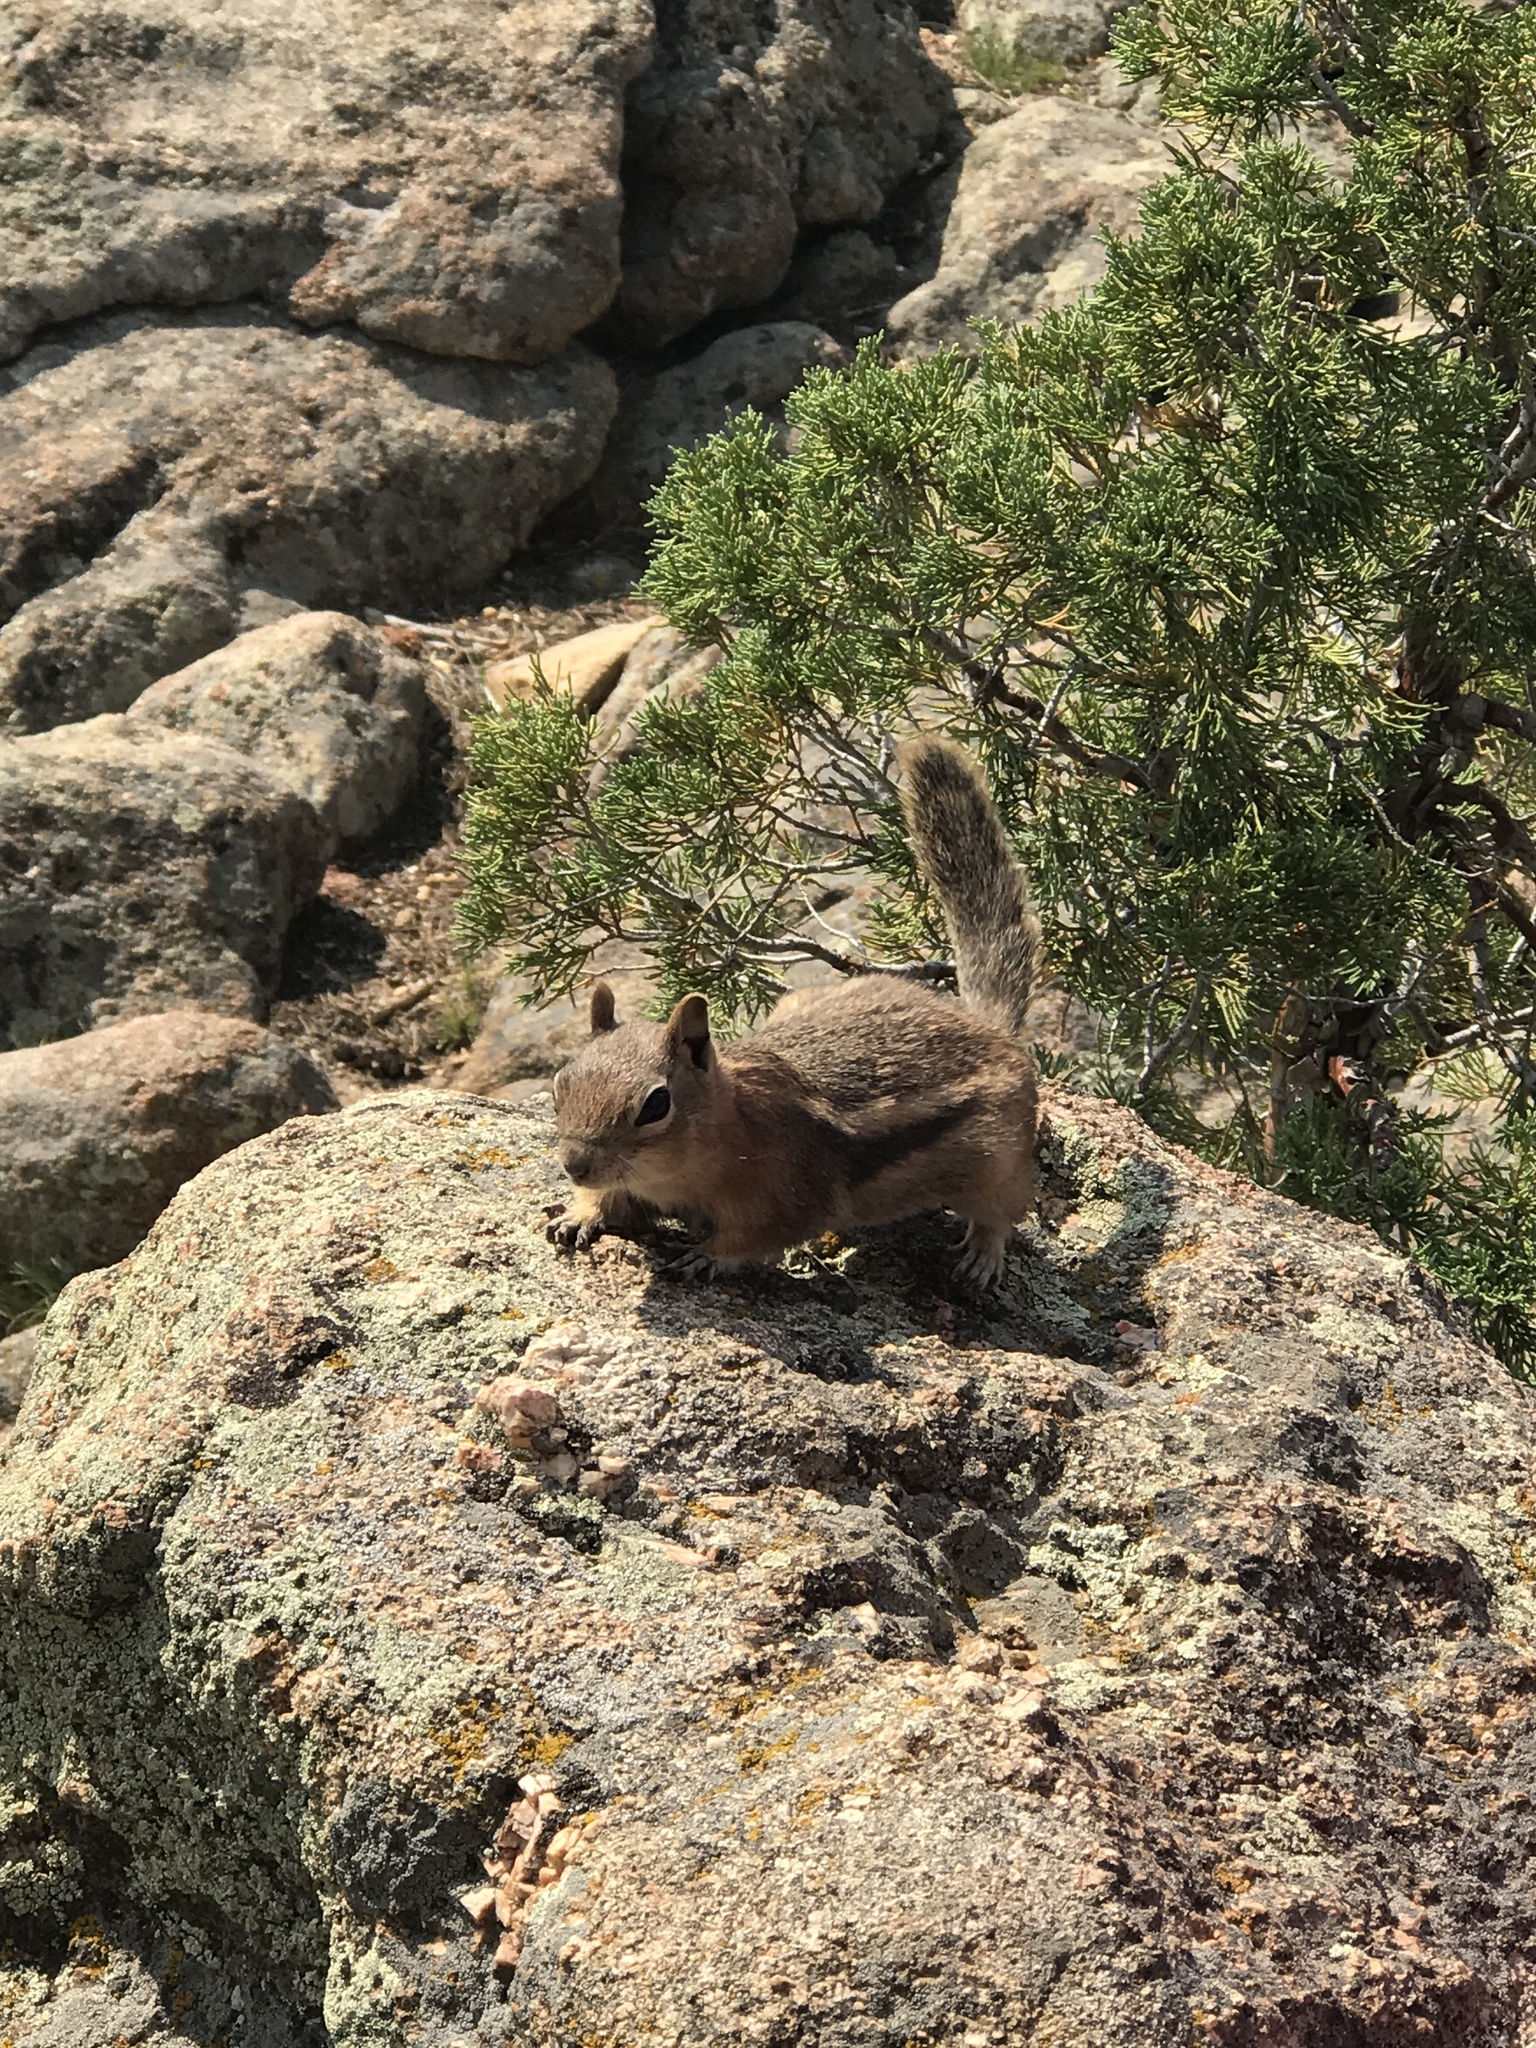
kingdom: Animalia
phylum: Chordata
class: Mammalia
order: Rodentia
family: Sciuridae
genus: Callospermophilus
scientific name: Callospermophilus lateralis
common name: Golden-mantled ground squirrel
